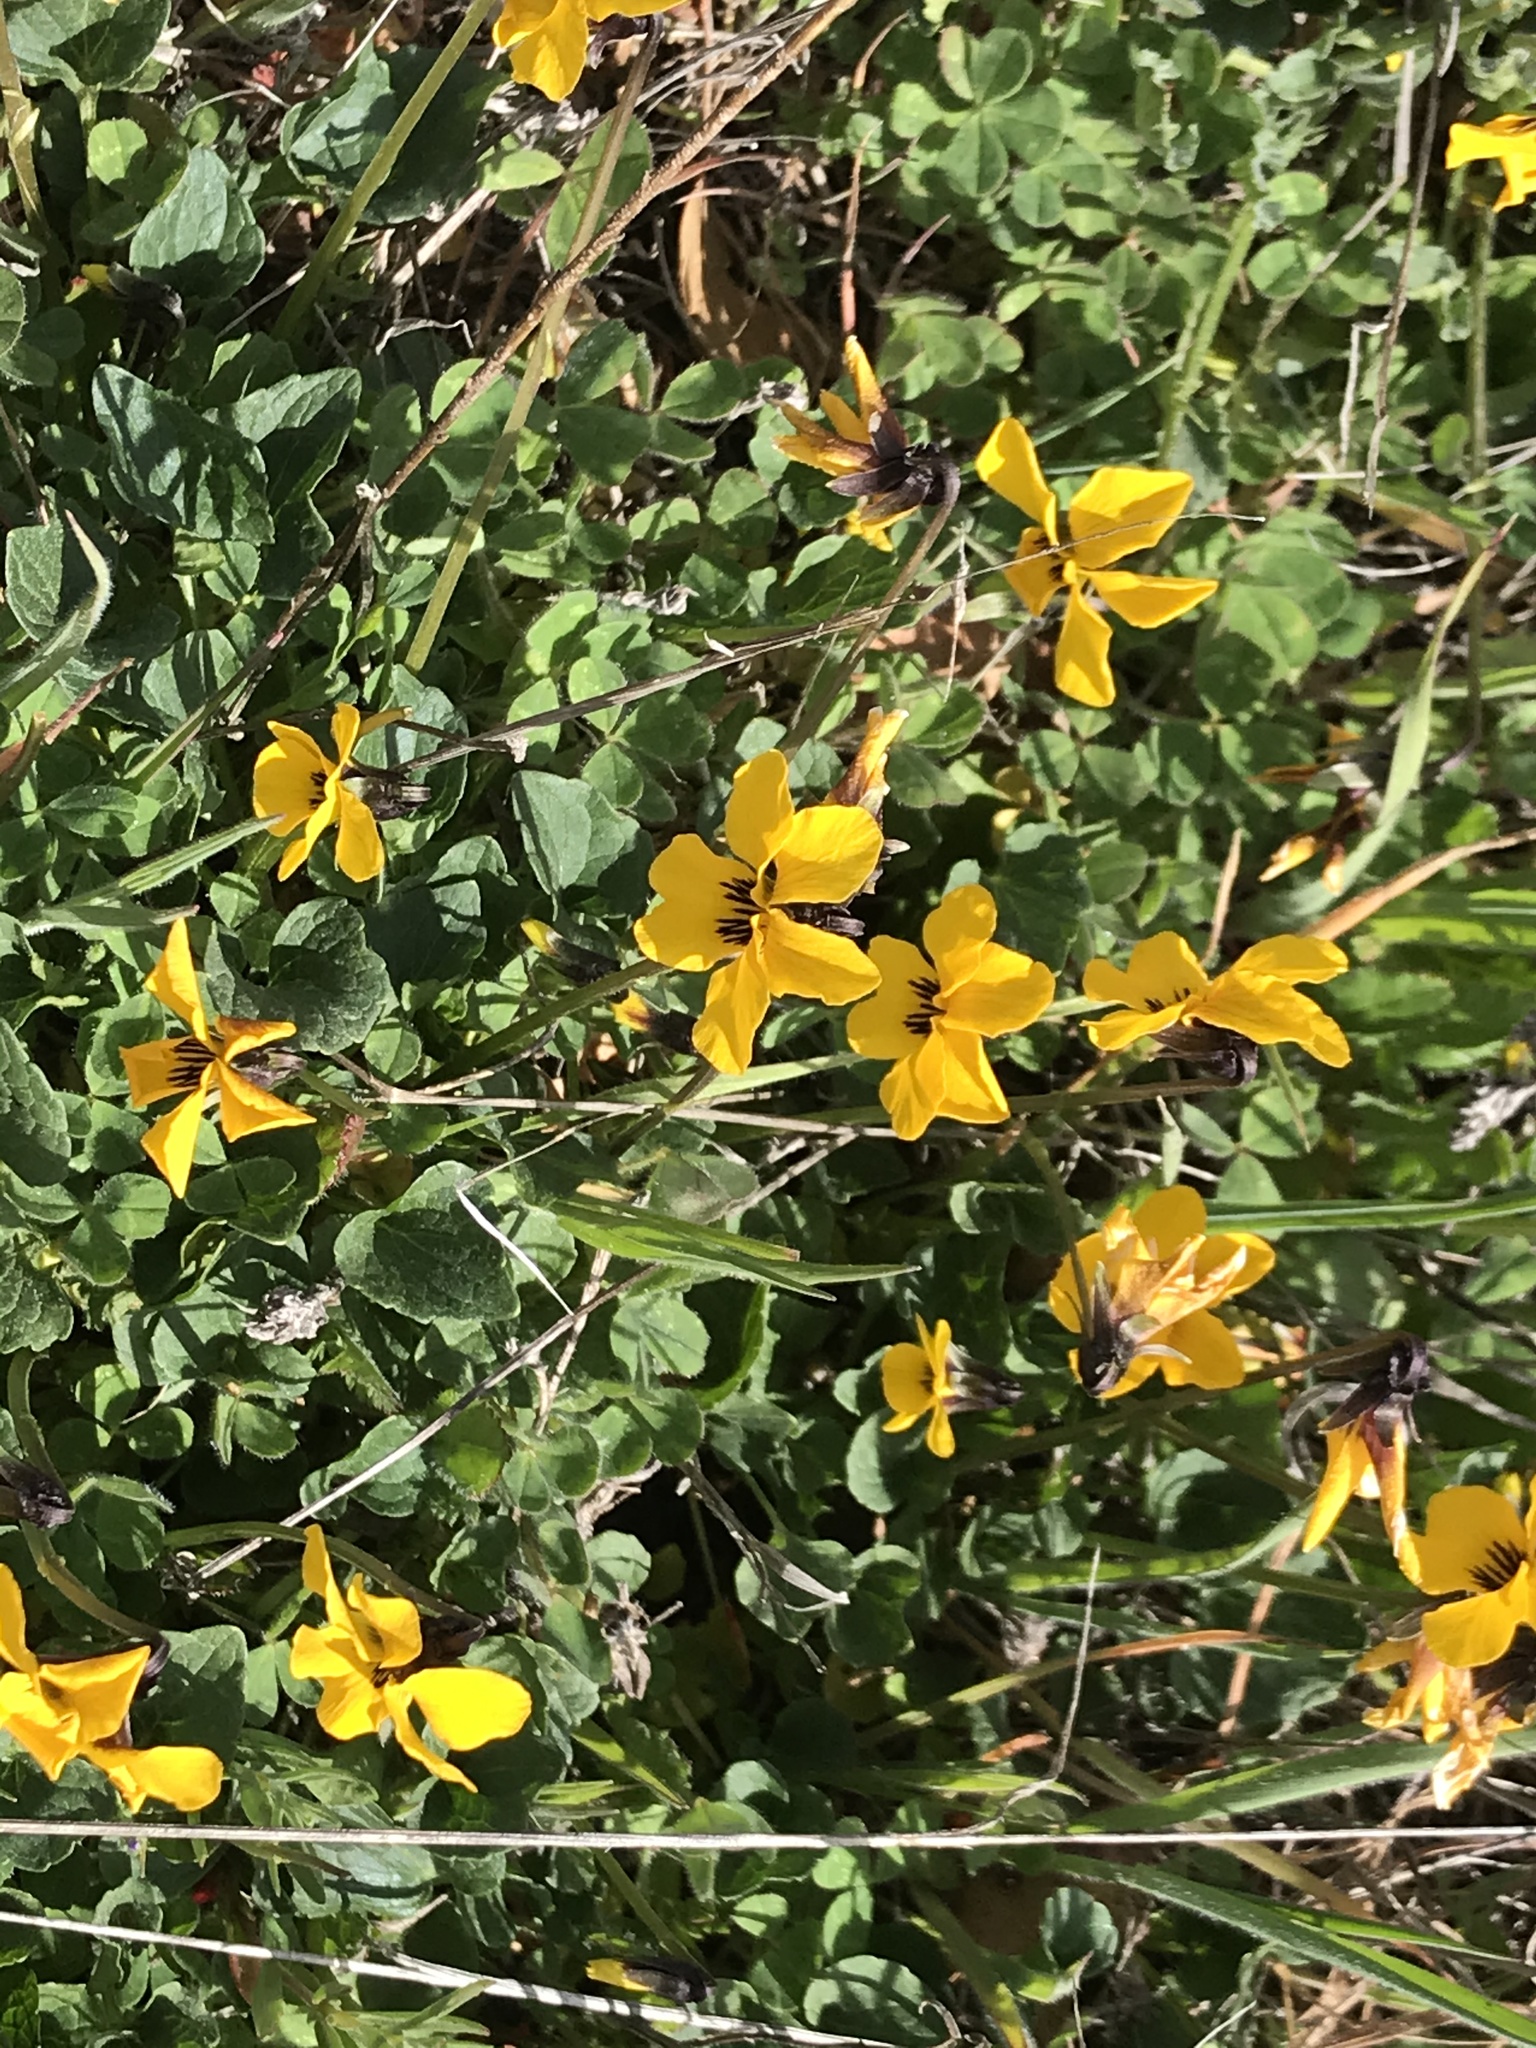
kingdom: Plantae
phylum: Tracheophyta
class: Magnoliopsida
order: Malpighiales
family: Violaceae
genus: Viola
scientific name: Viola pedunculata
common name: California golden violet
